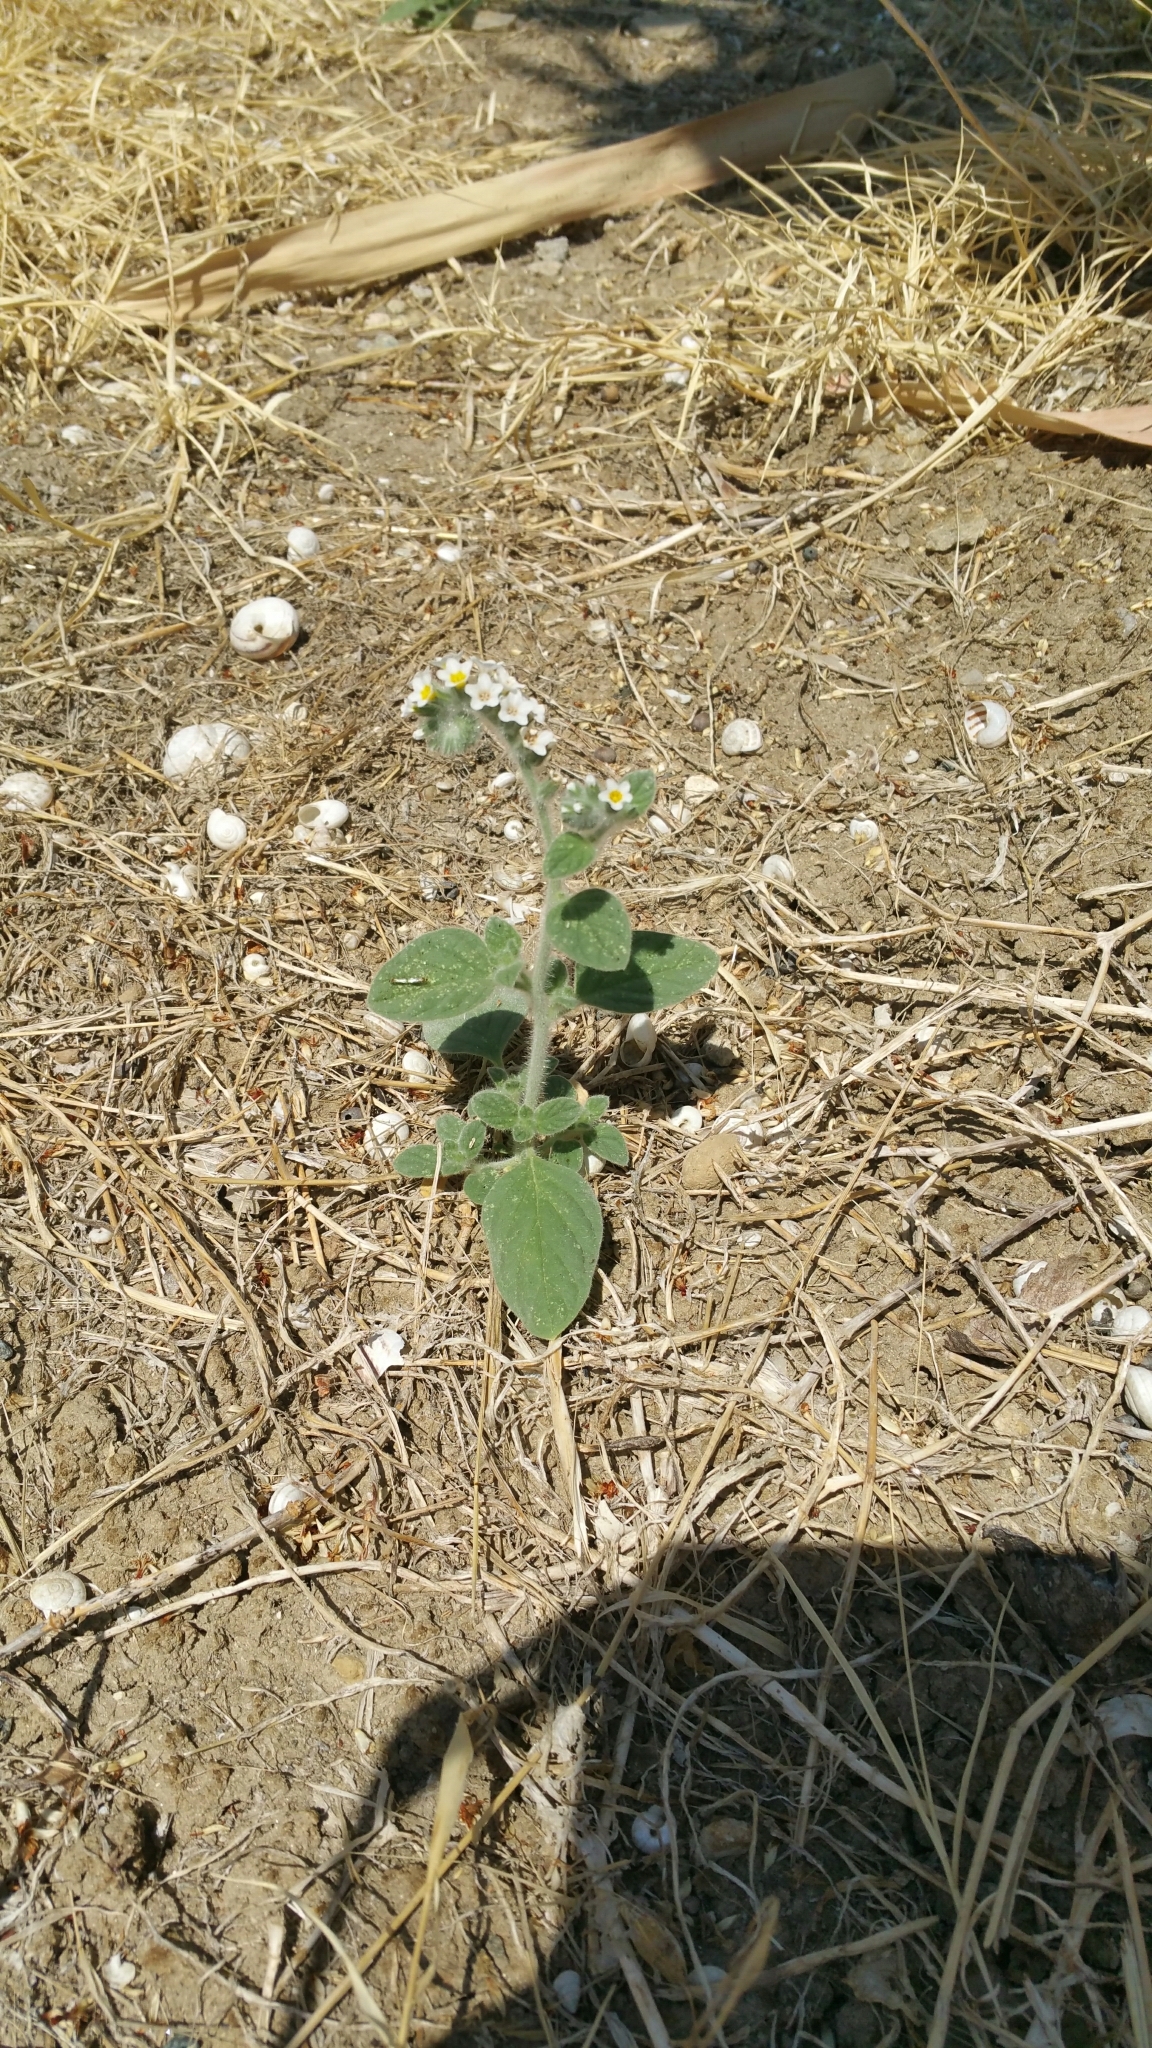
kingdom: Plantae
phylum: Tracheophyta
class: Magnoliopsida
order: Boraginales
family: Heliotropiaceae
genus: Heliotropium
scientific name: Heliotropium europaeum
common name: European heliotrope
